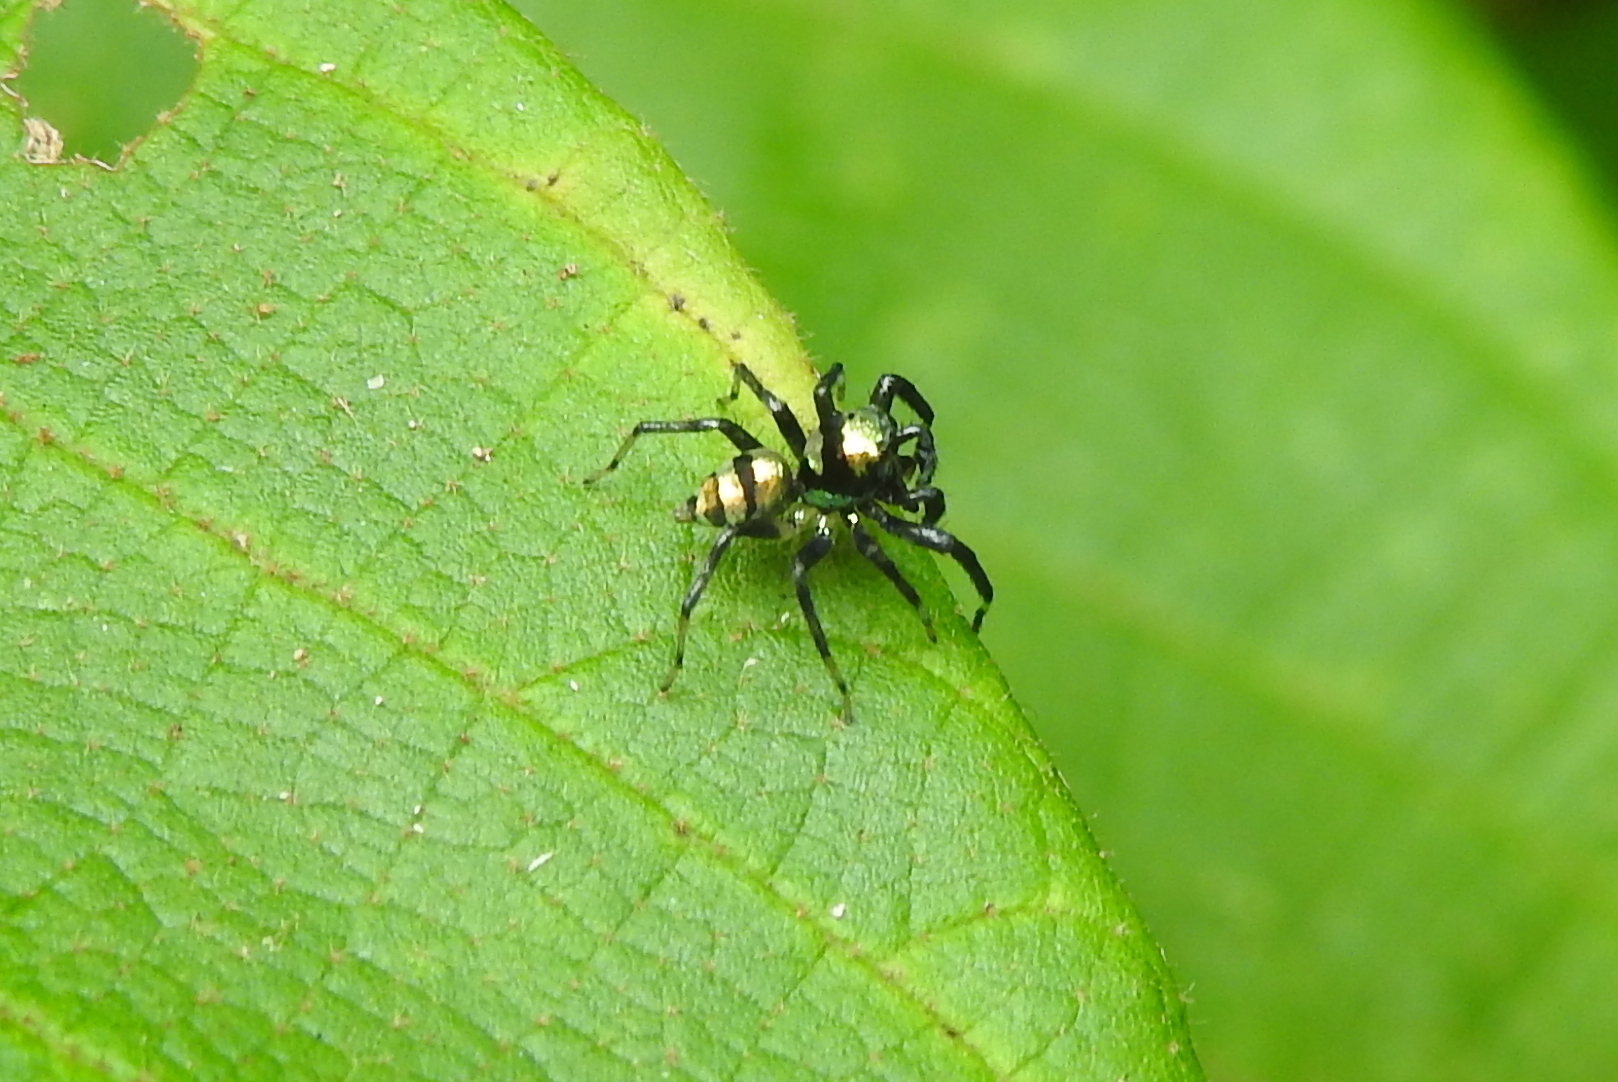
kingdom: Animalia
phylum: Arthropoda
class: Arachnida
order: Araneae
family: Salticidae
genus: Phintella
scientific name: Phintella vittata
